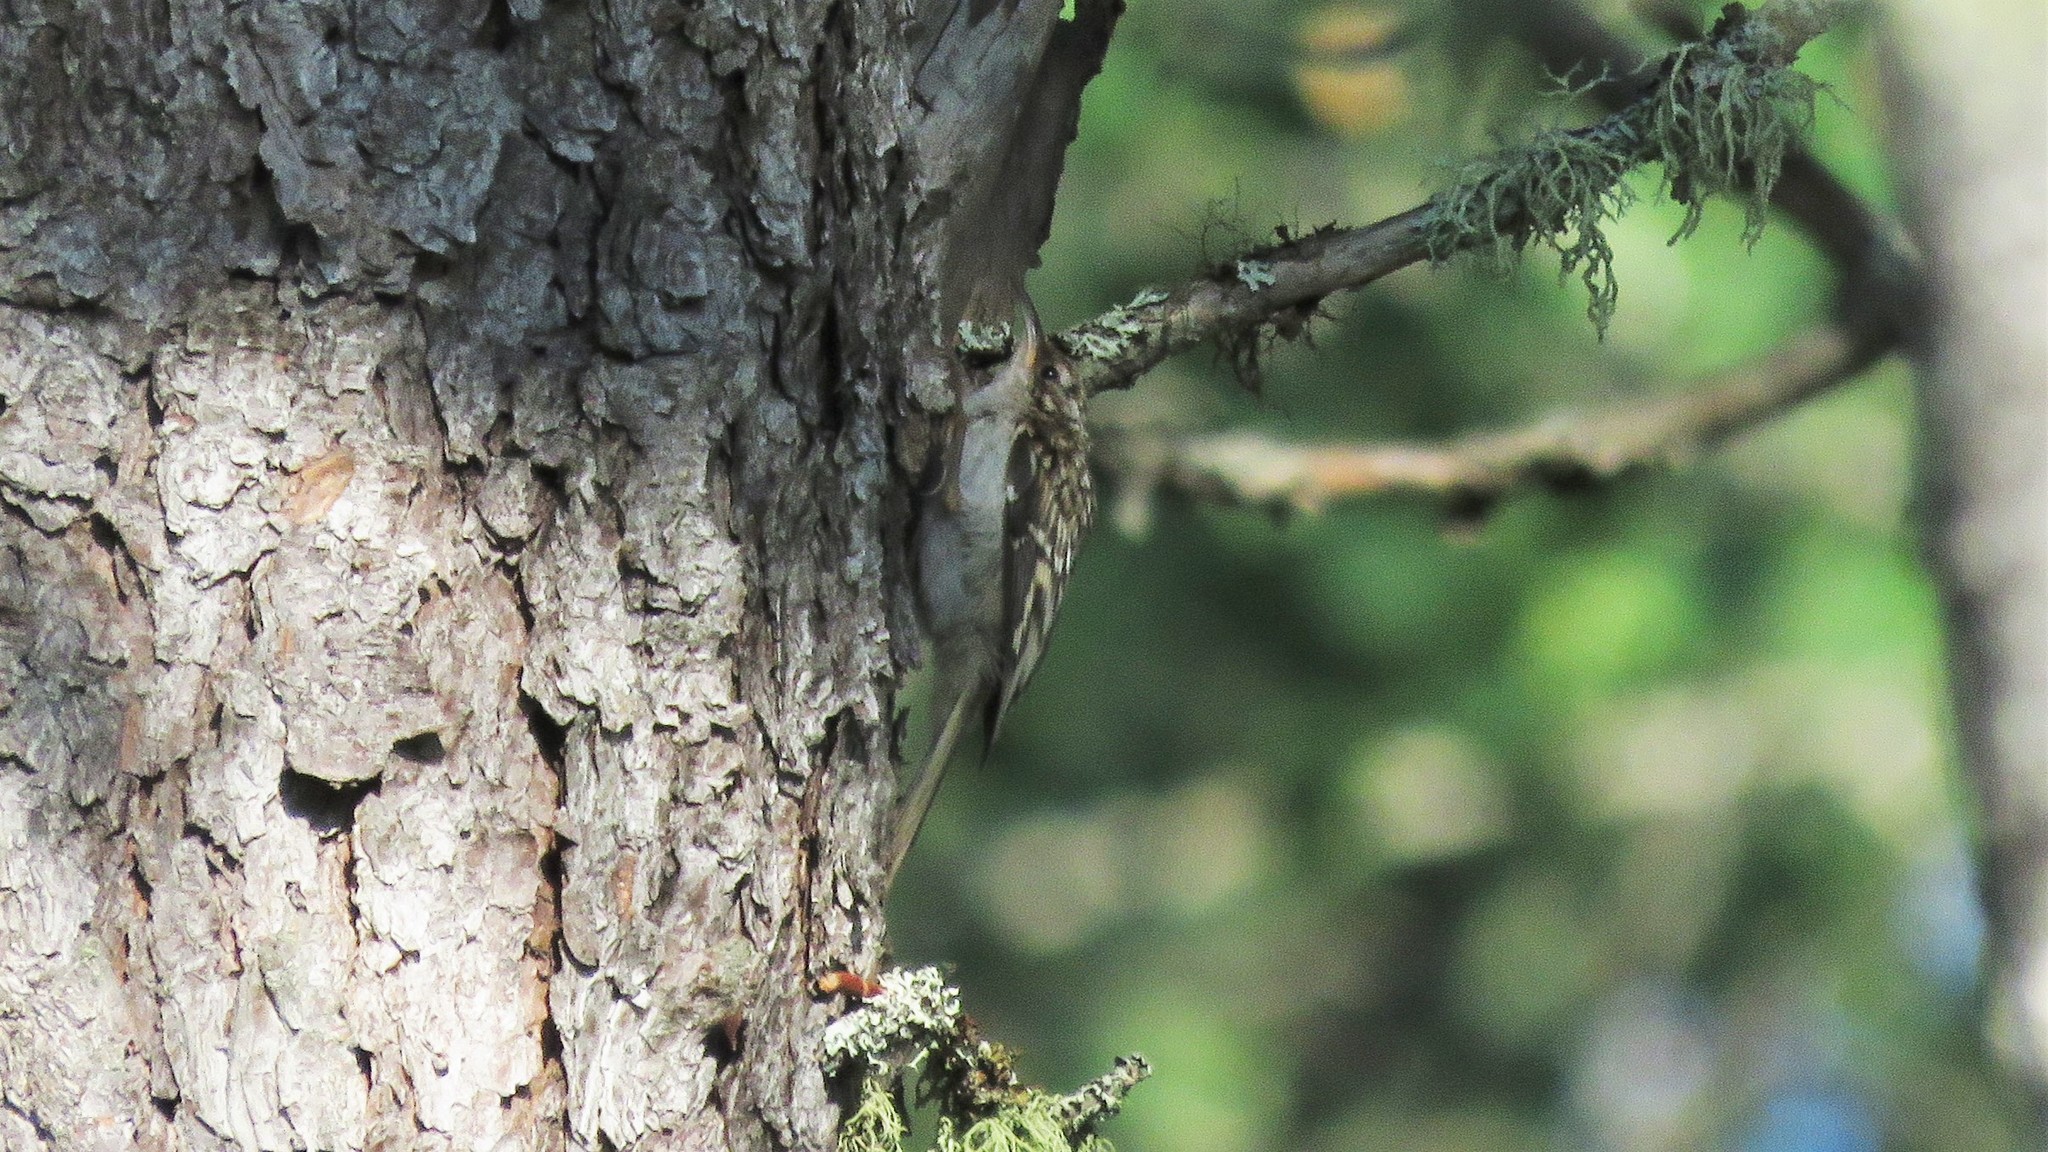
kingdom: Animalia
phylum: Chordata
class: Aves
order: Passeriformes
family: Certhiidae
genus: Certhia
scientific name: Certhia americana
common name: Brown creeper
